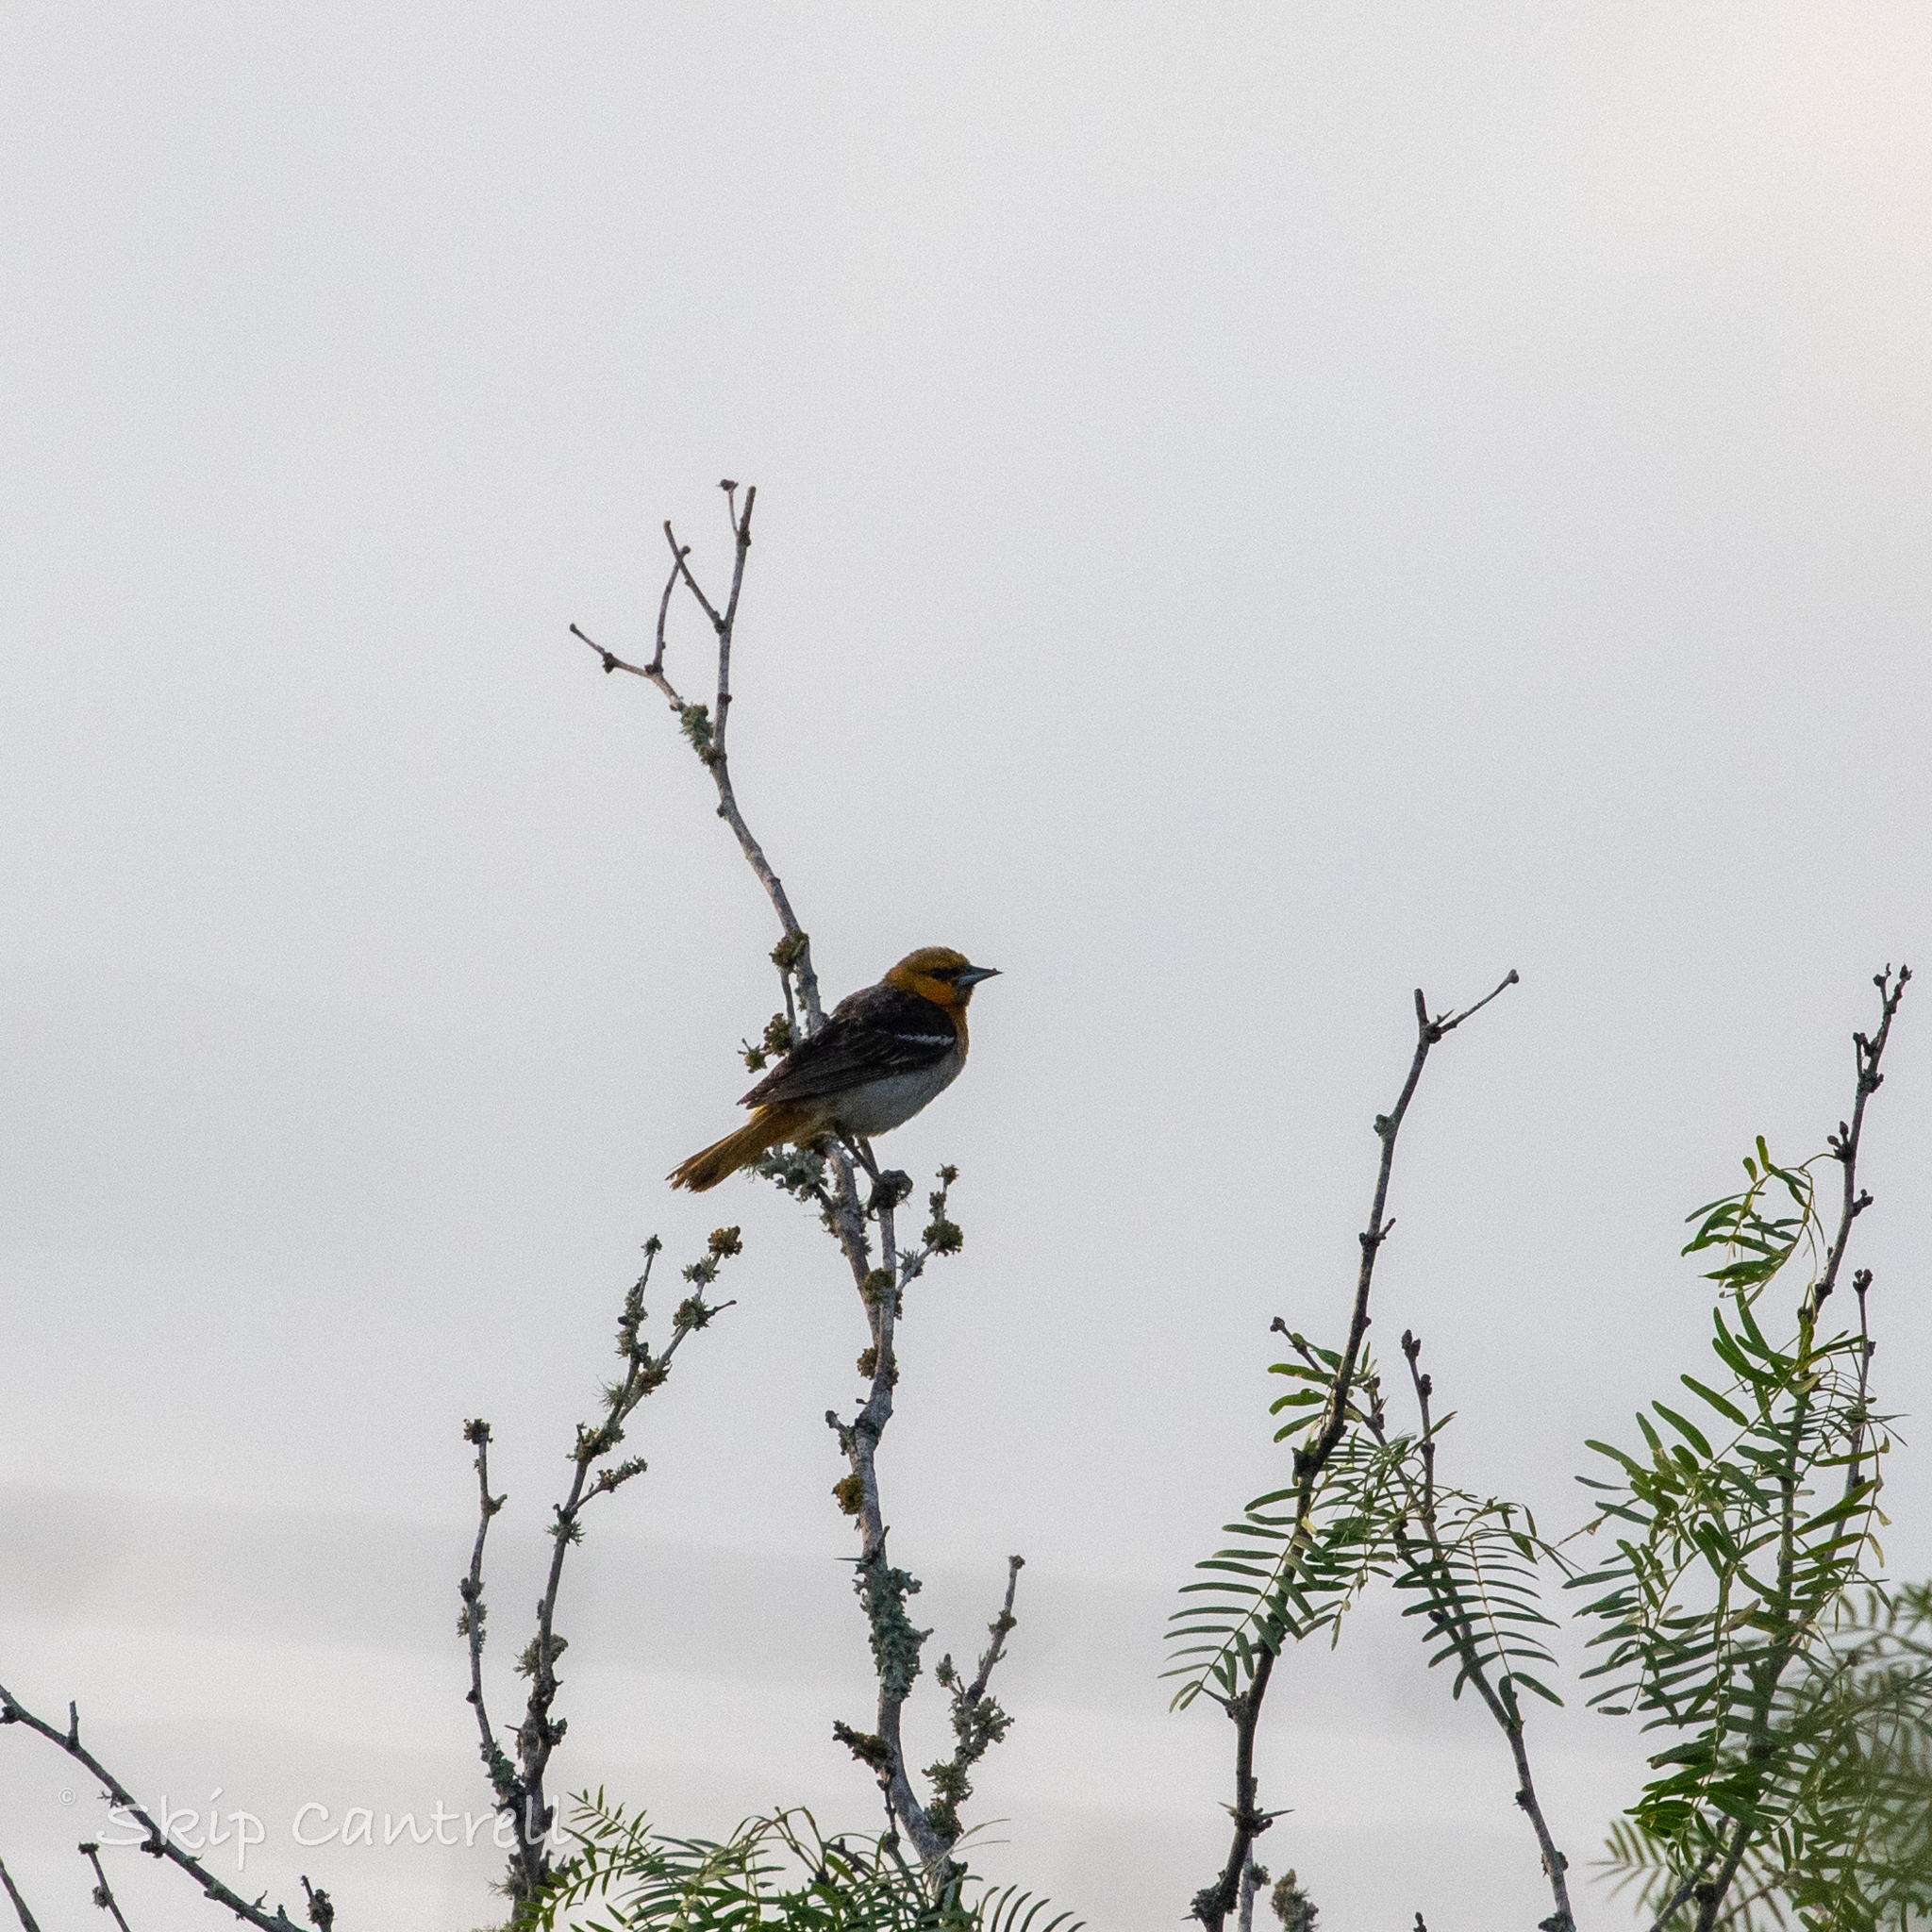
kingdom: Animalia
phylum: Chordata
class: Aves
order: Passeriformes
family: Icteridae
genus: Icterus
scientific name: Icterus bullockii
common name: Bullock's oriole
